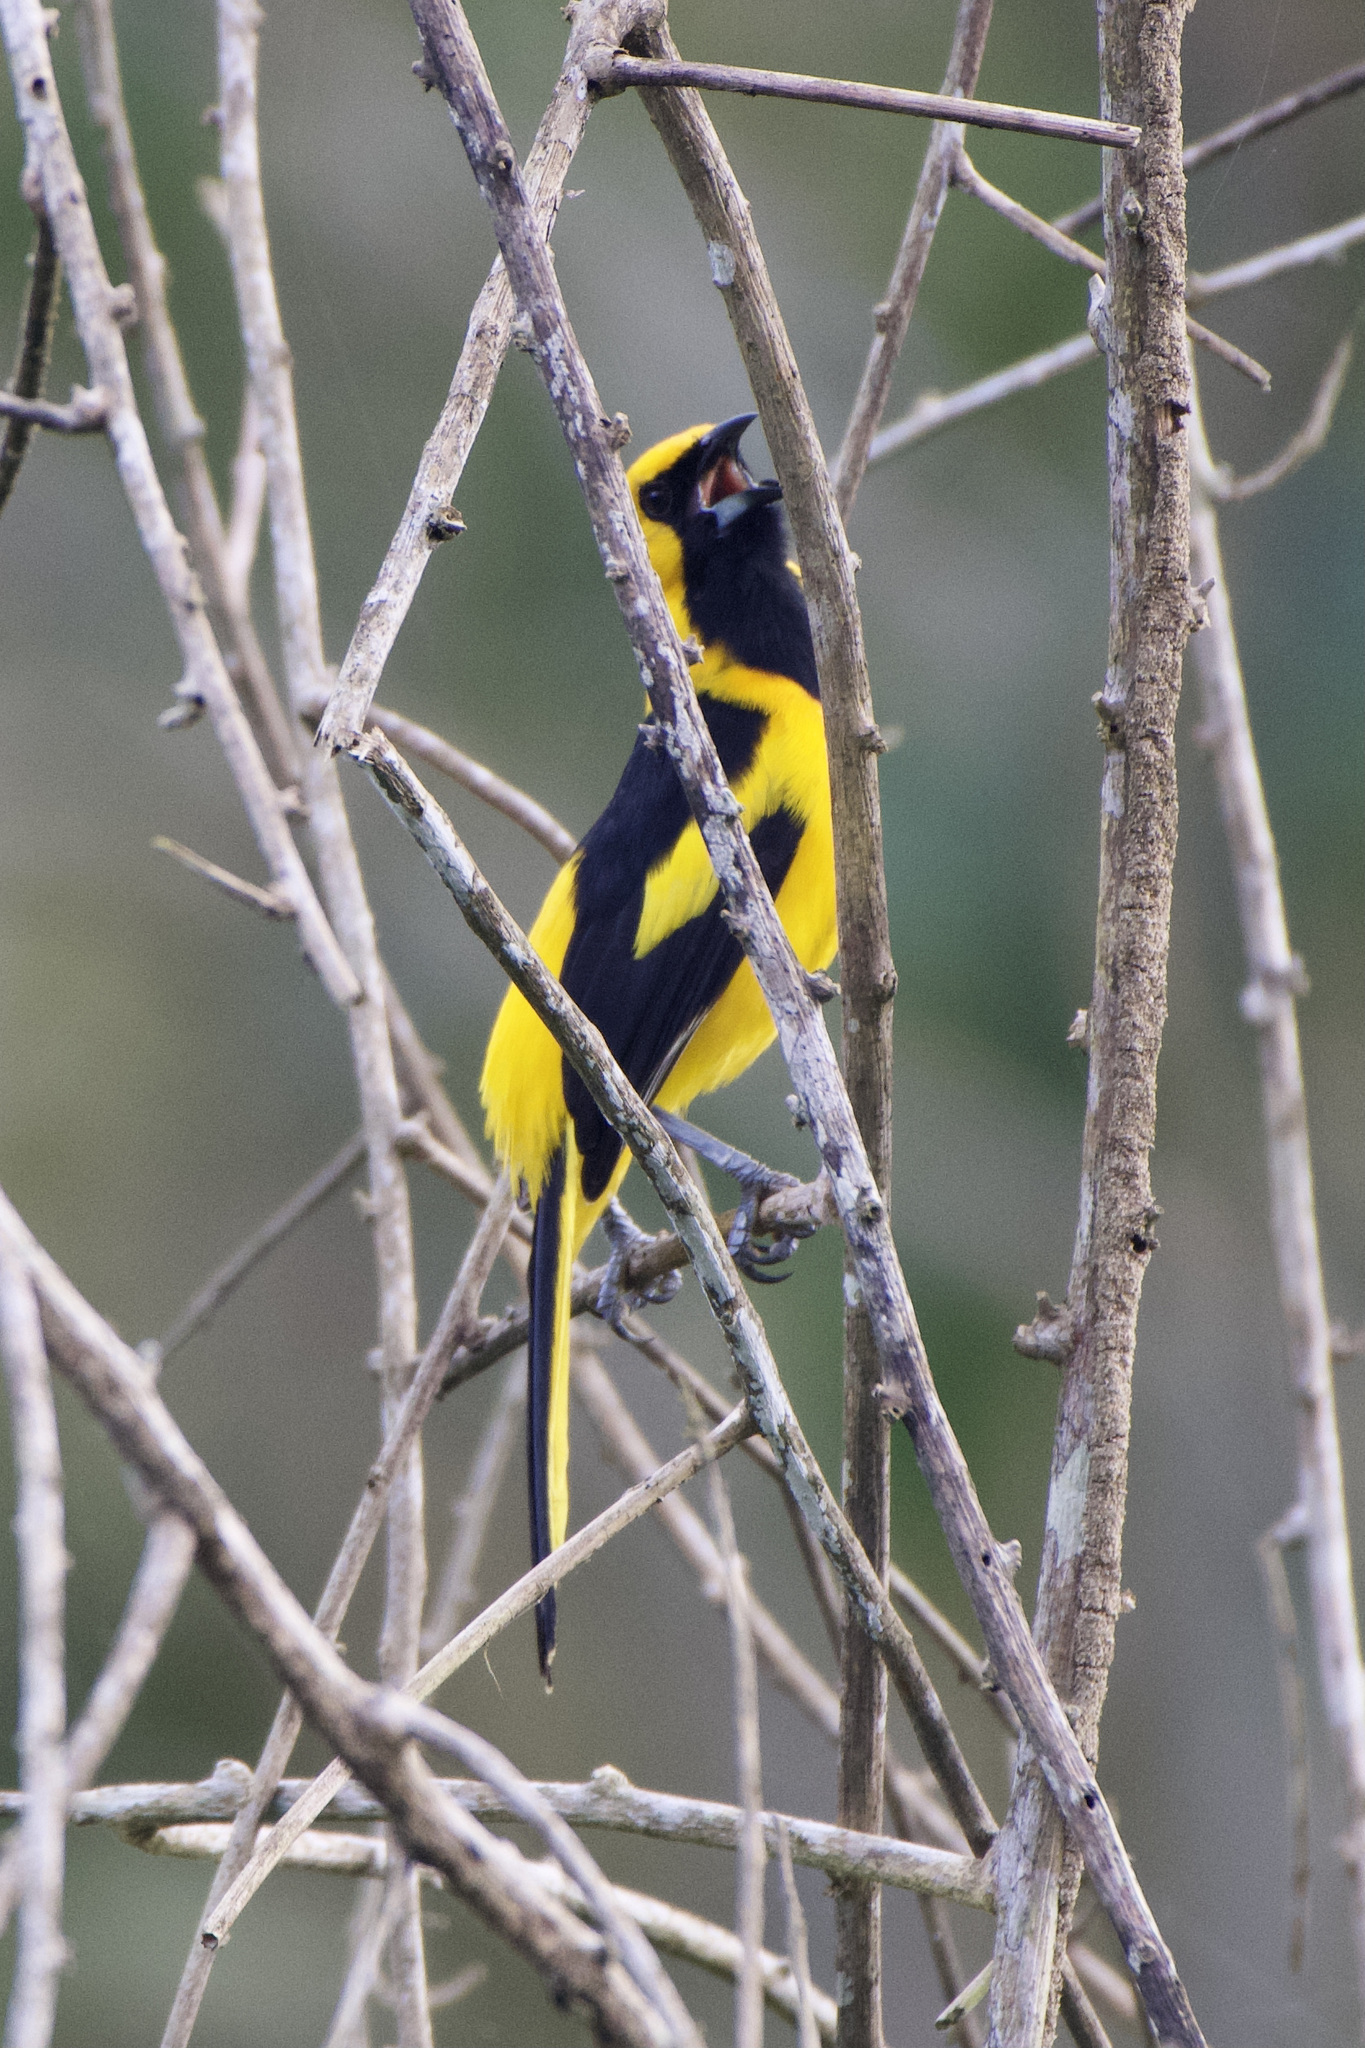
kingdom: Animalia
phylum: Chordata
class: Aves
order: Passeriformes
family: Icteridae
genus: Icterus
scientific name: Icterus mesomelas
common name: Yellow-tailed oriole
